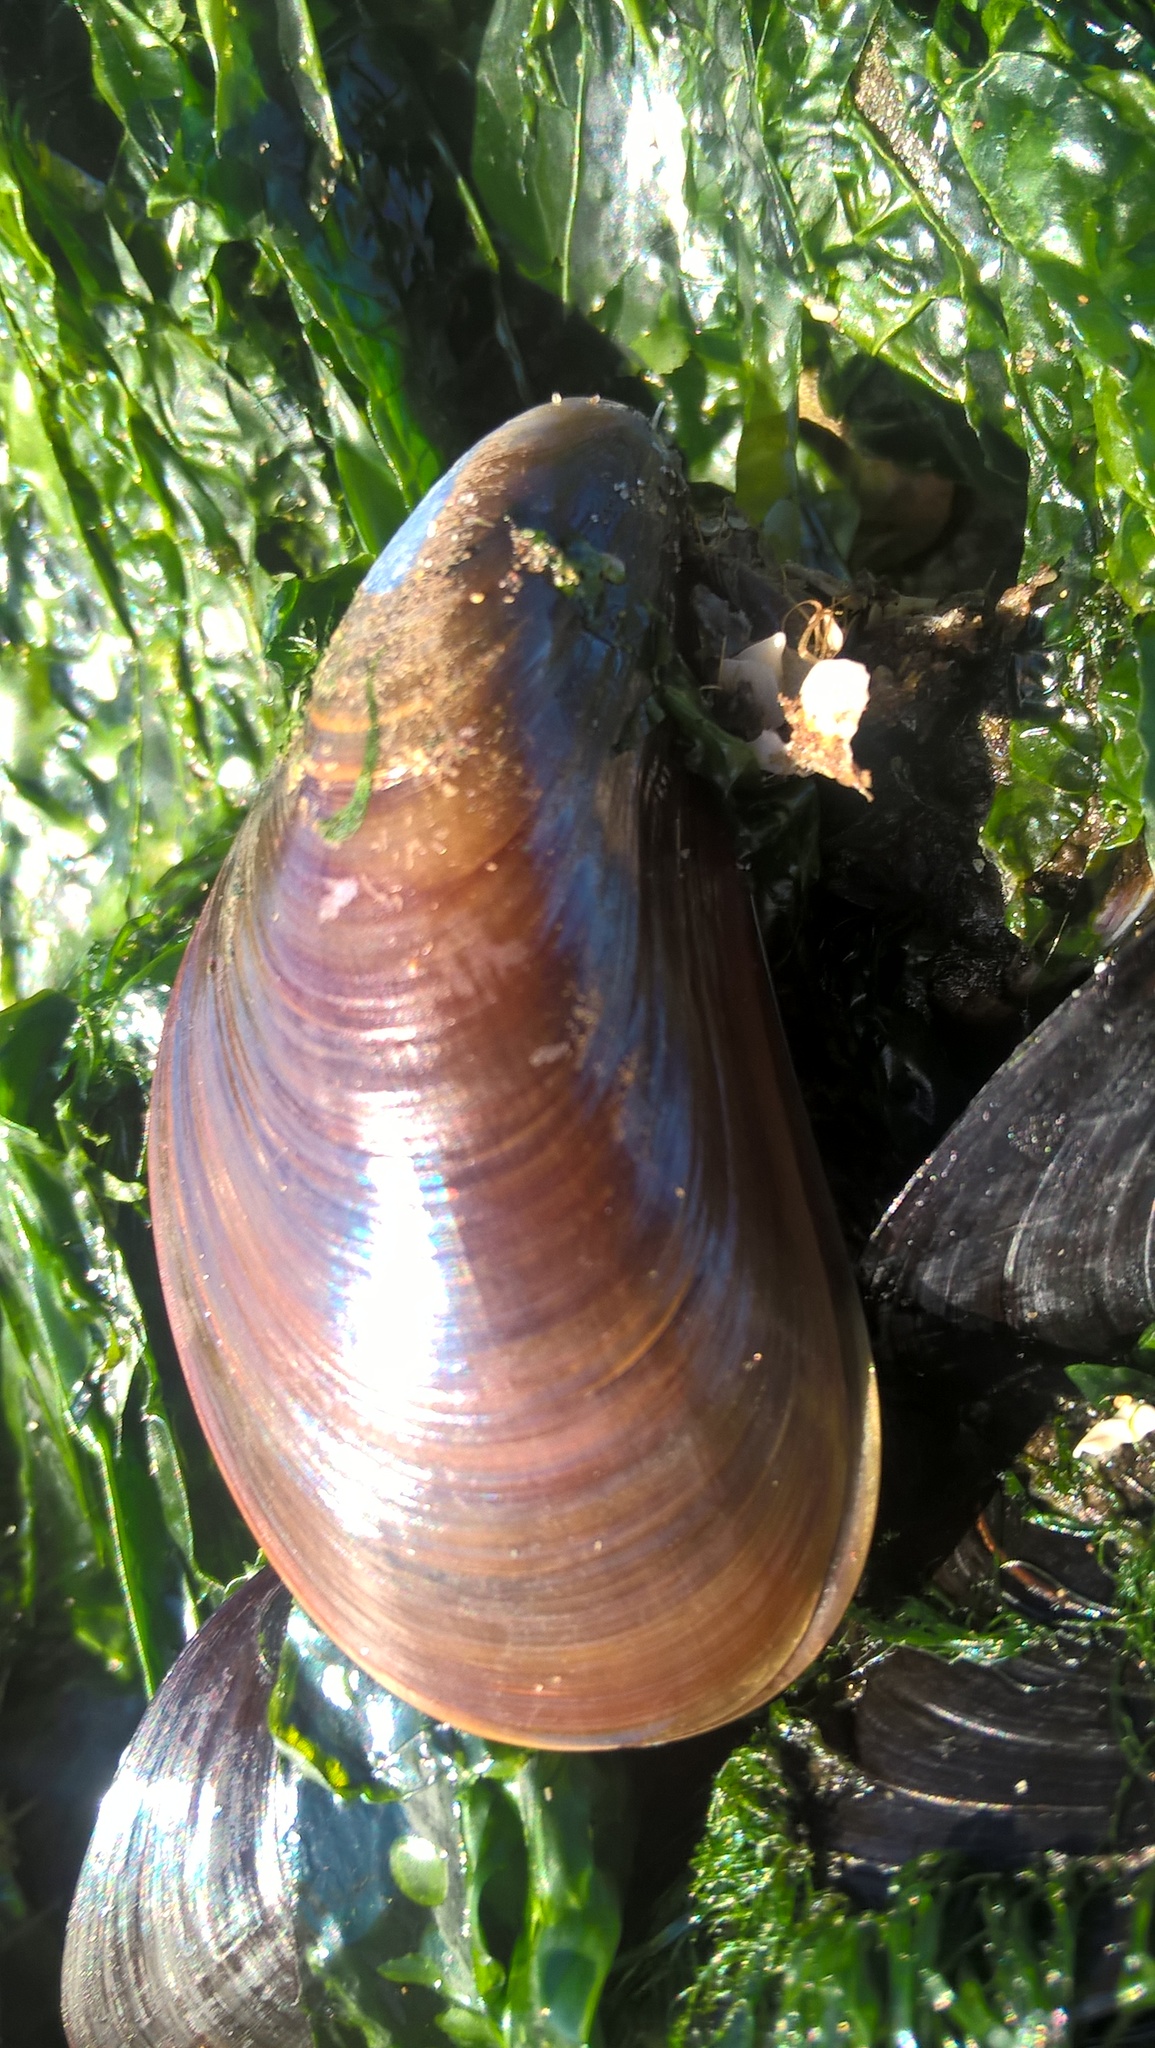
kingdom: Animalia
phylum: Mollusca
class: Bivalvia
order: Mytilida
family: Mytilidae
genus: Mytilus
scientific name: Mytilus platensis
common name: Chilean mussel
